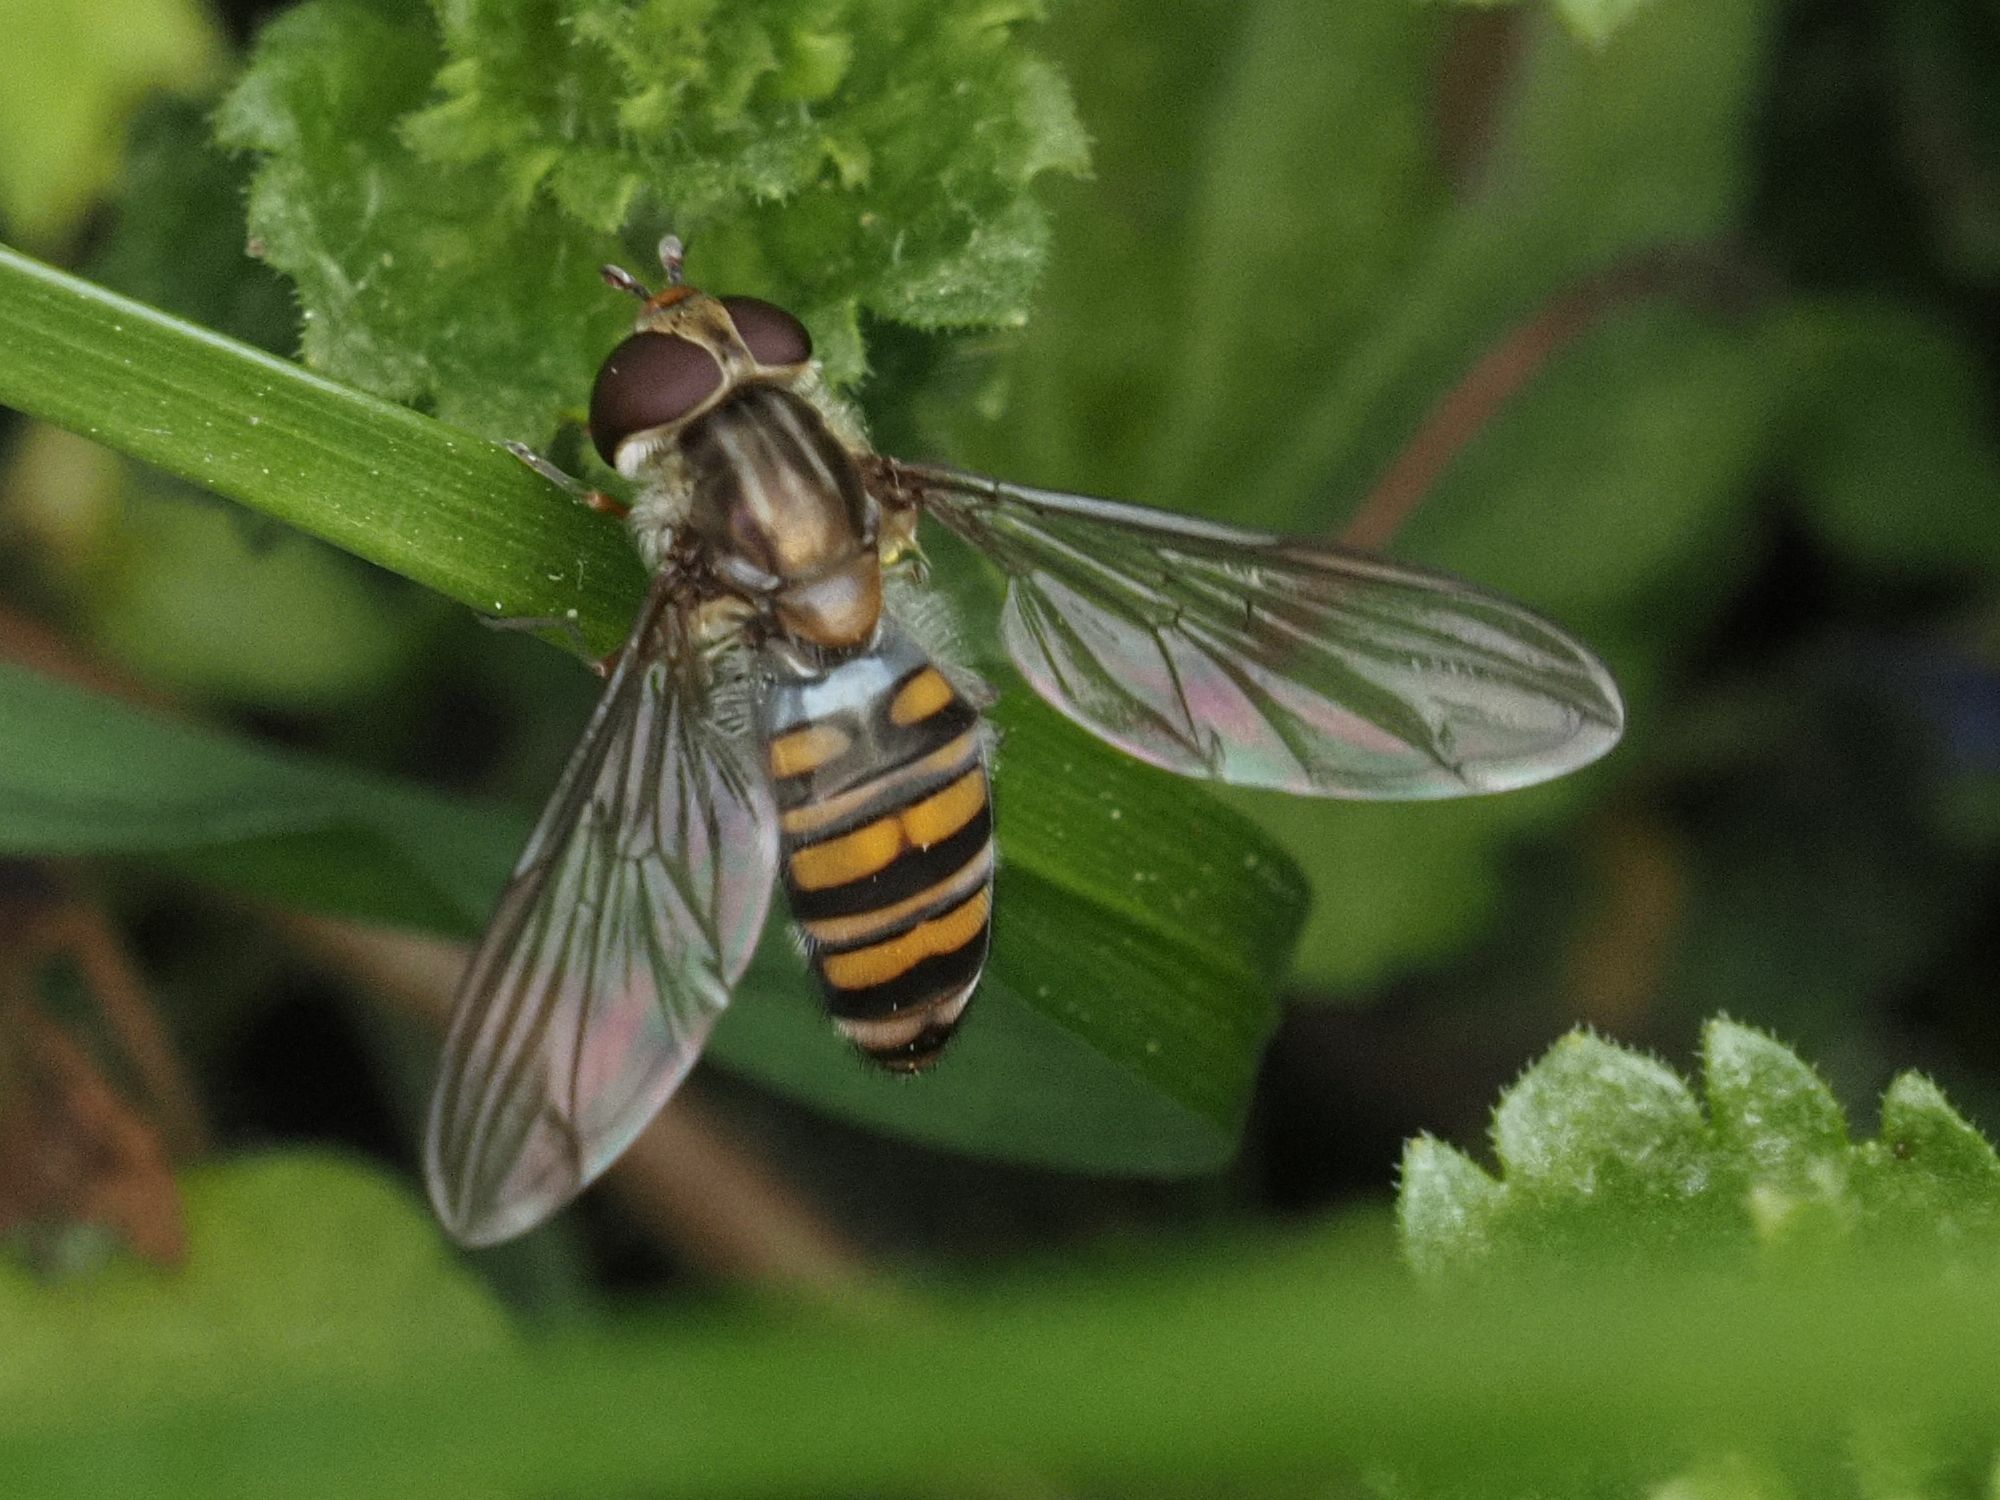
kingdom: Animalia
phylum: Arthropoda
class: Insecta
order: Diptera
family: Syrphidae
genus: Episyrphus
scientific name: Episyrphus balteatus
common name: Marmalade hoverfly
